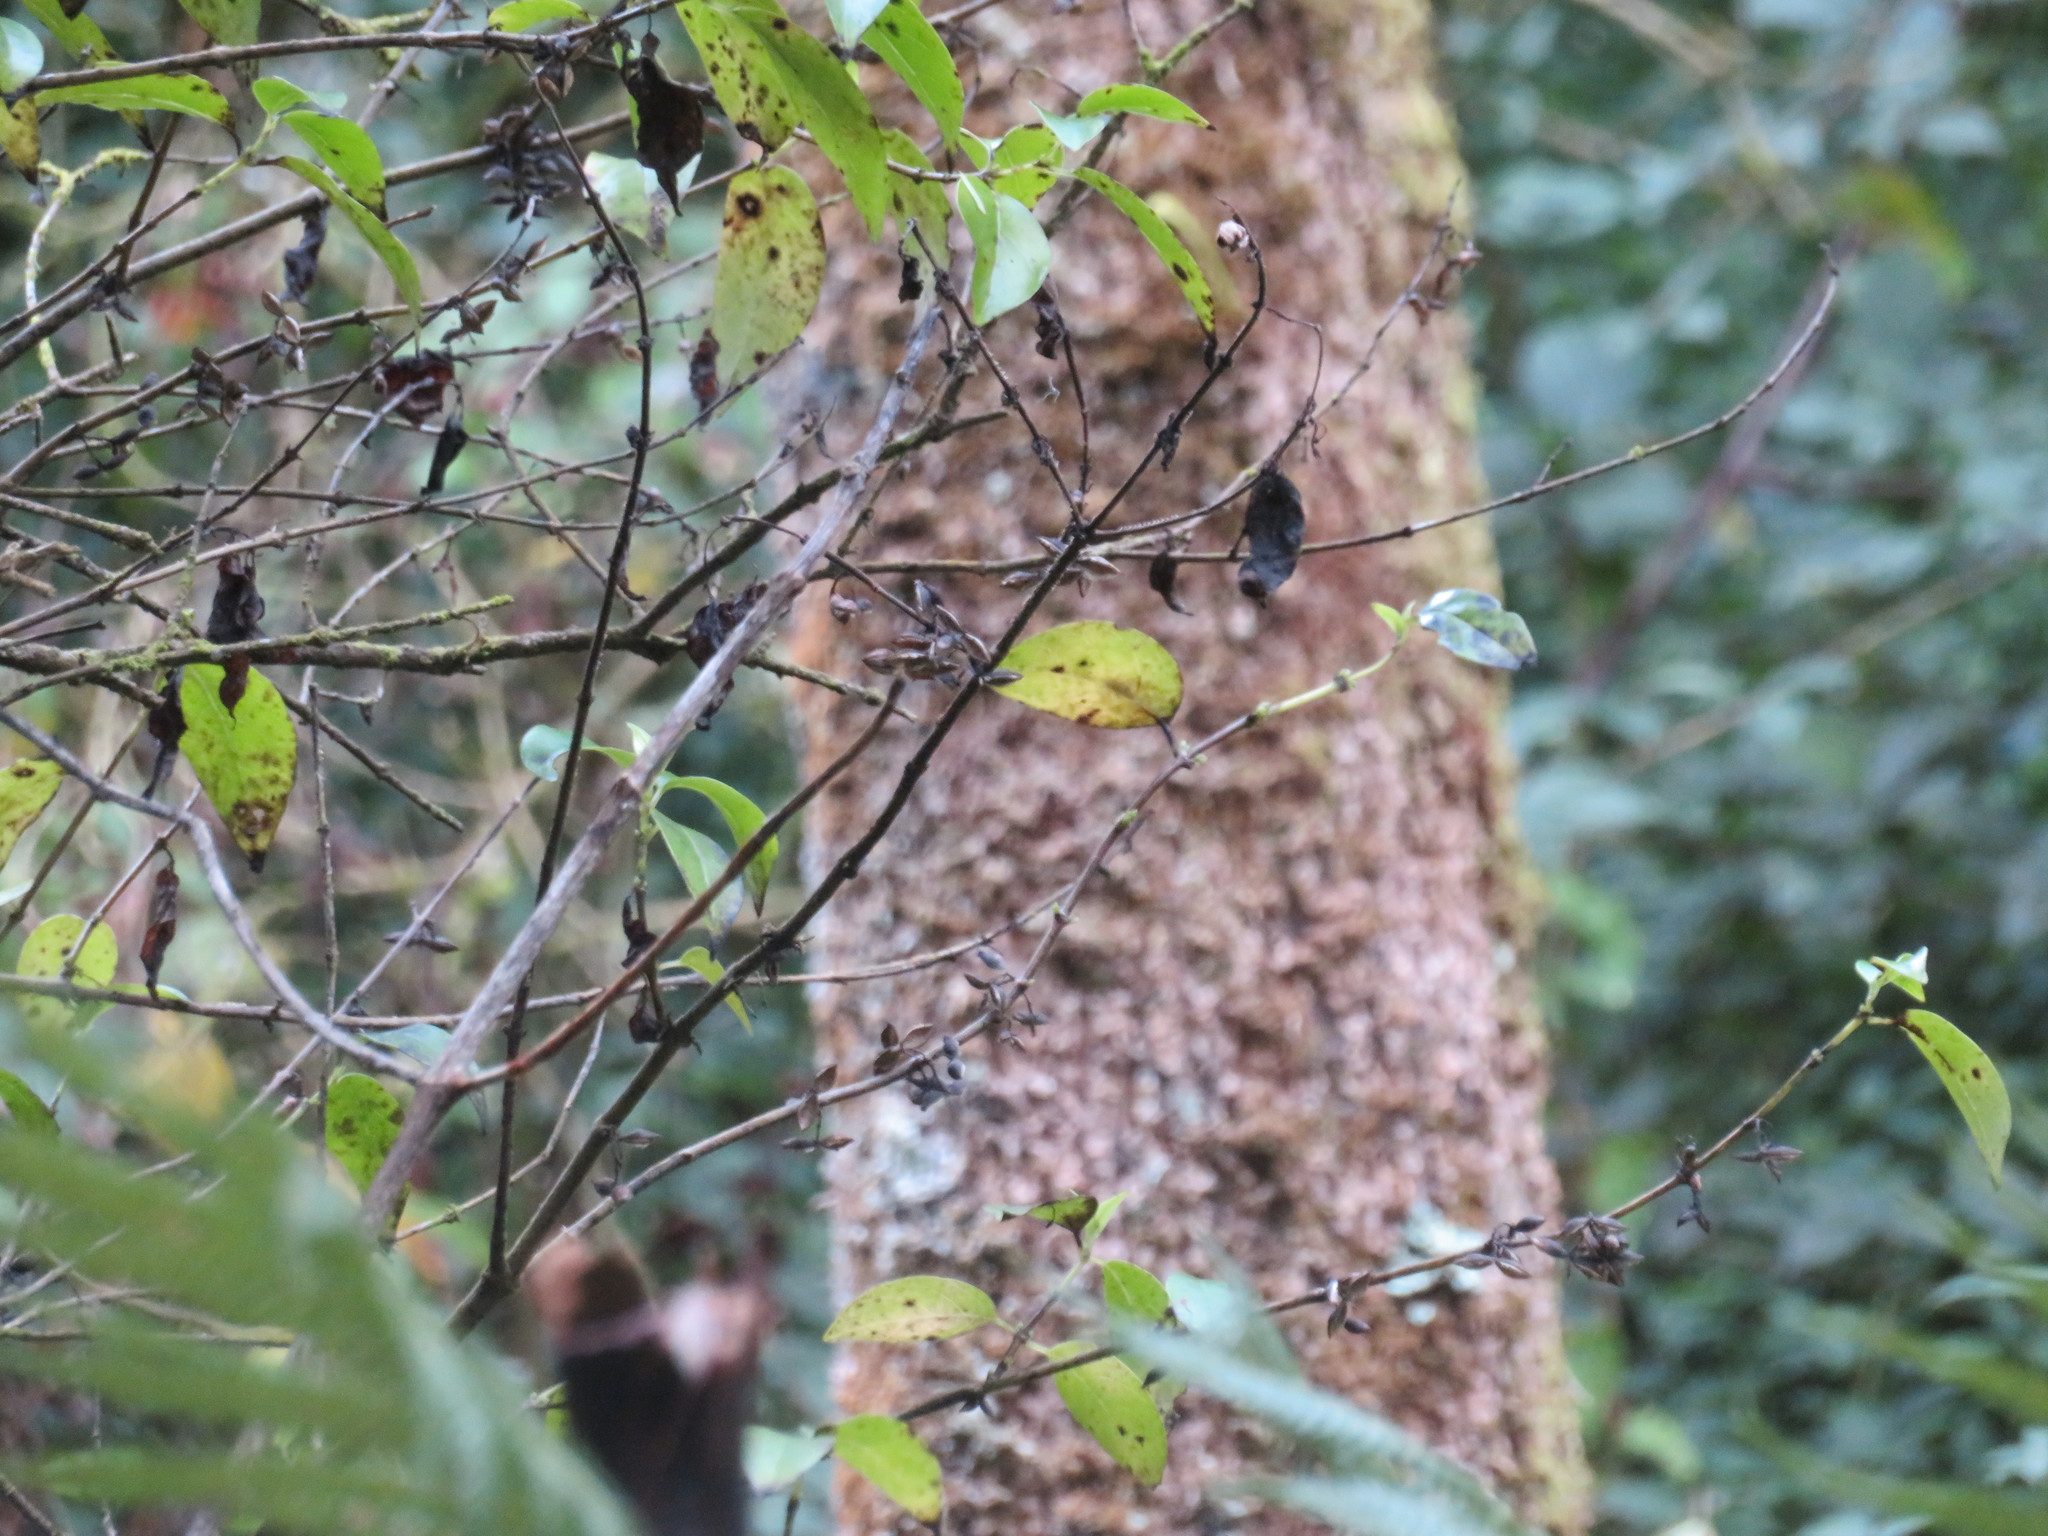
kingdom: Plantae
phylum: Tracheophyta
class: Magnoliopsida
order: Gentianales
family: Loganiaceae
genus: Geniostoma
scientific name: Geniostoma ligustrifolium
